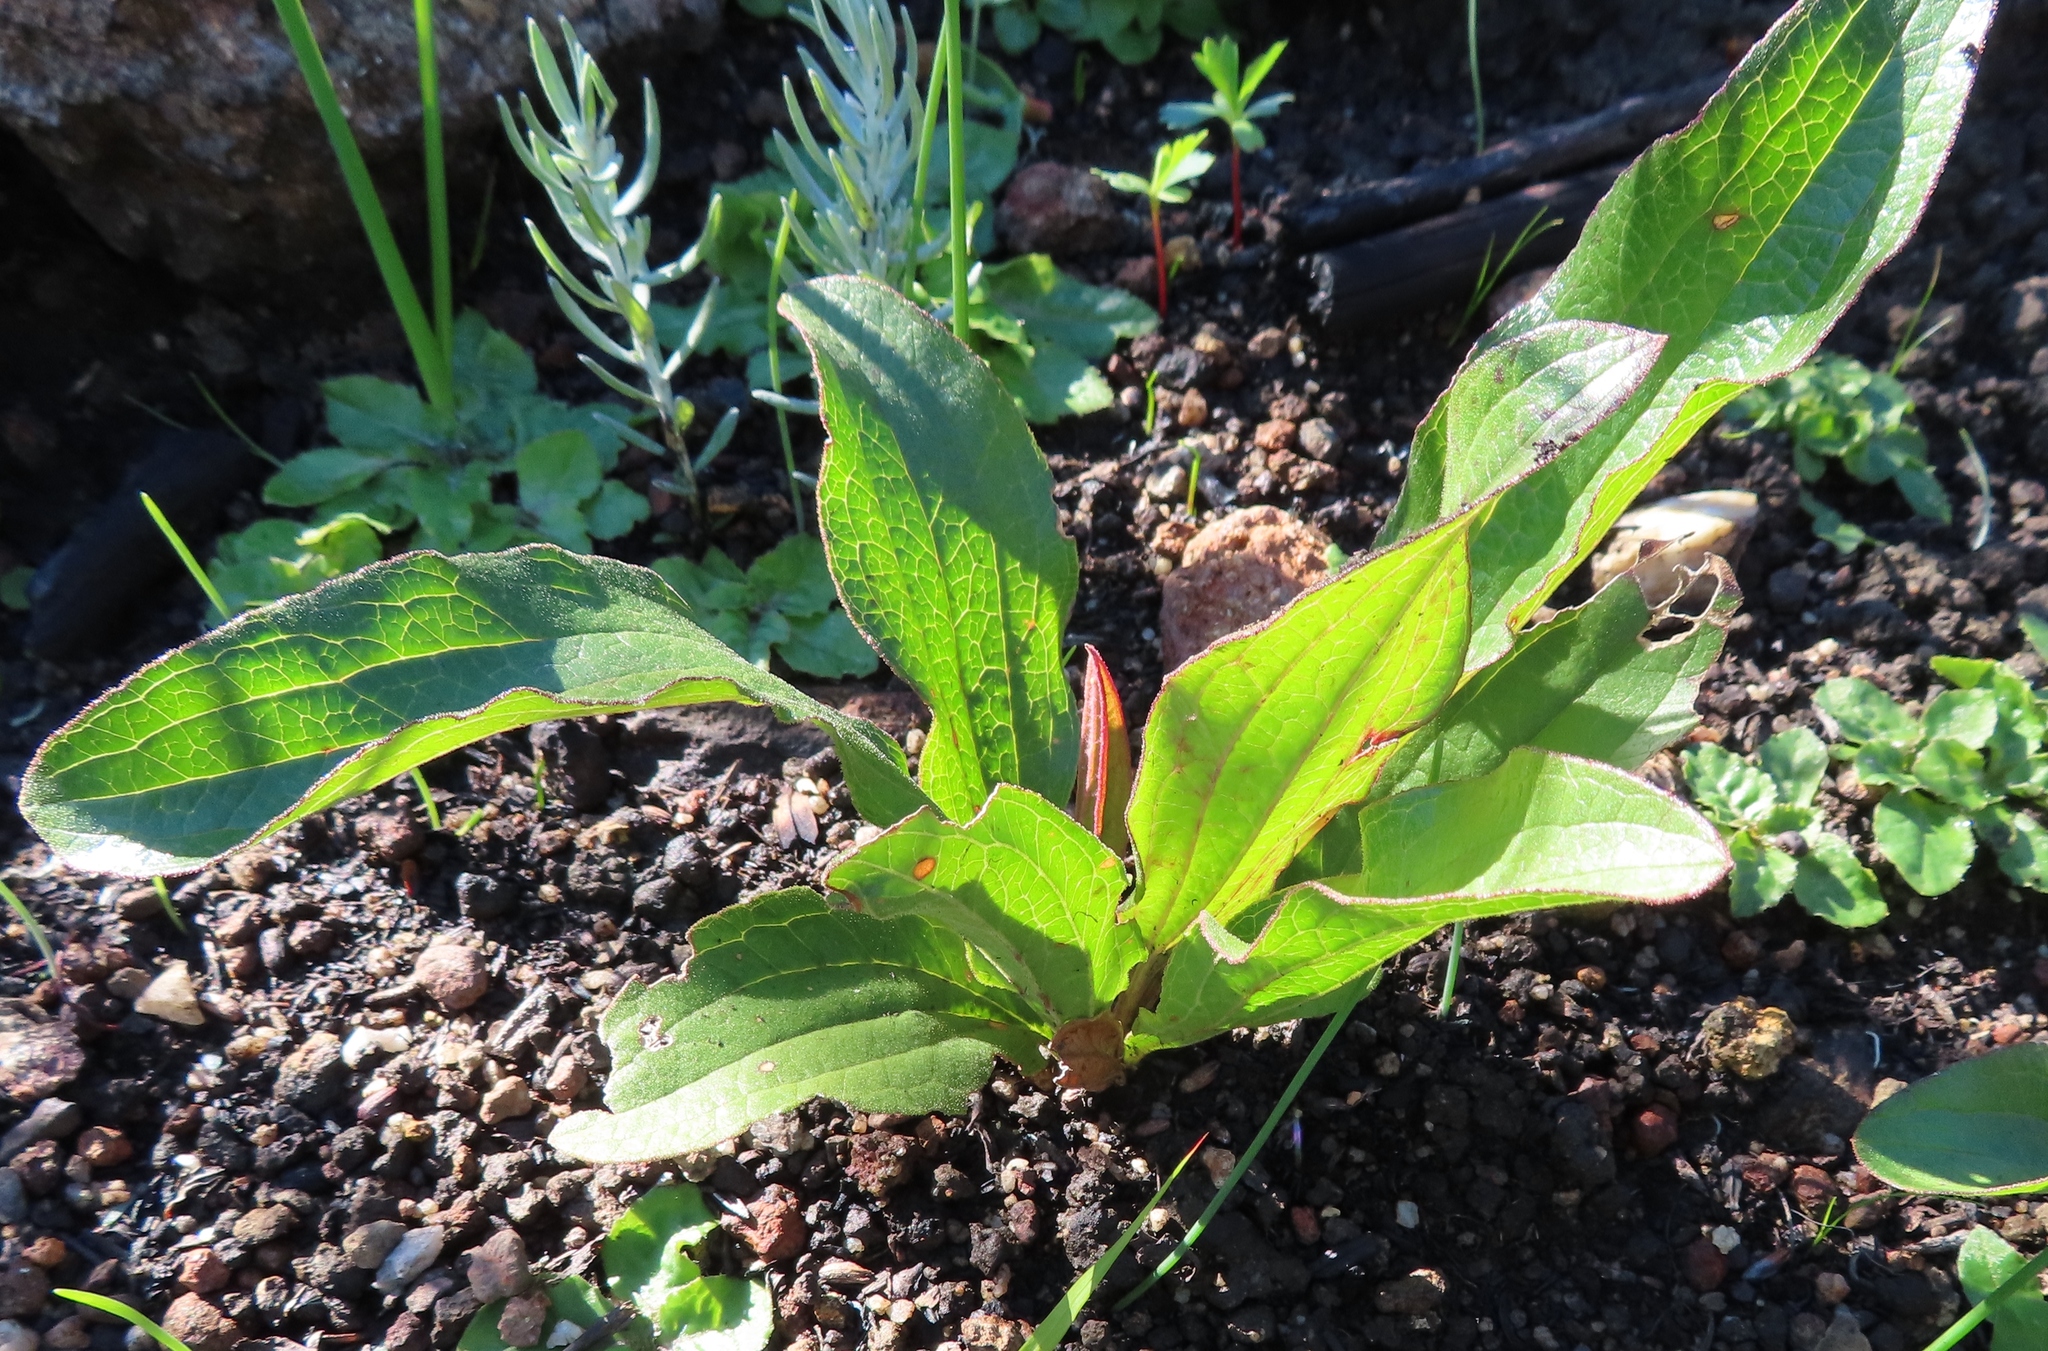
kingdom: Plantae
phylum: Tracheophyta
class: Magnoliopsida
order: Asterales
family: Asteraceae
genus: Helichrysum
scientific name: Helichrysum nudifolium
